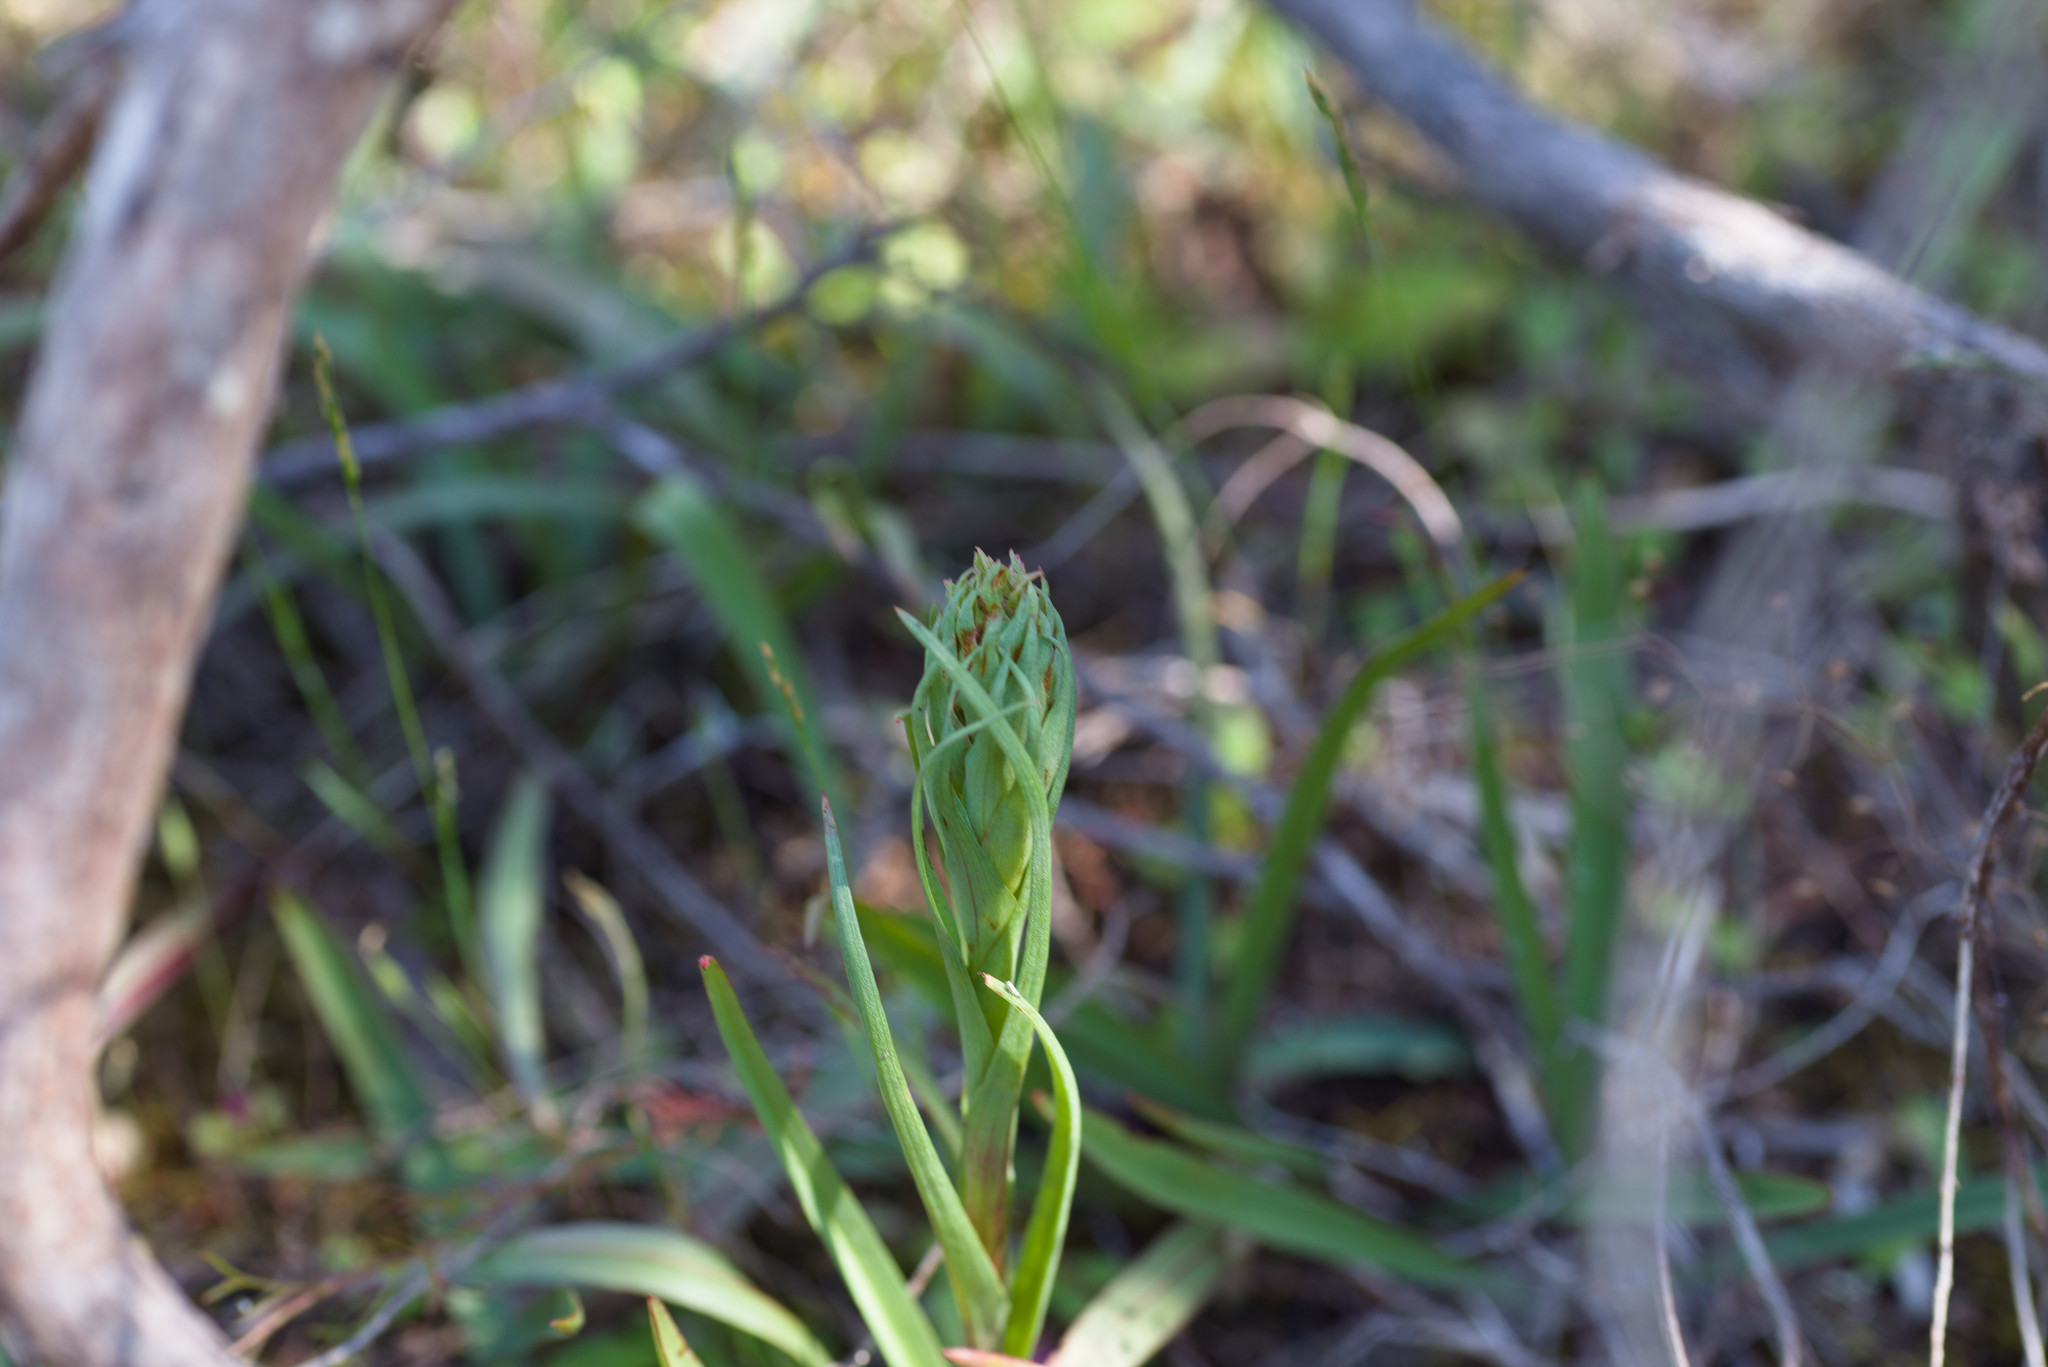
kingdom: Plantae
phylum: Tracheophyta
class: Liliopsida
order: Asparagales
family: Orchidaceae
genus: Disa
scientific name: Disa bracteata
